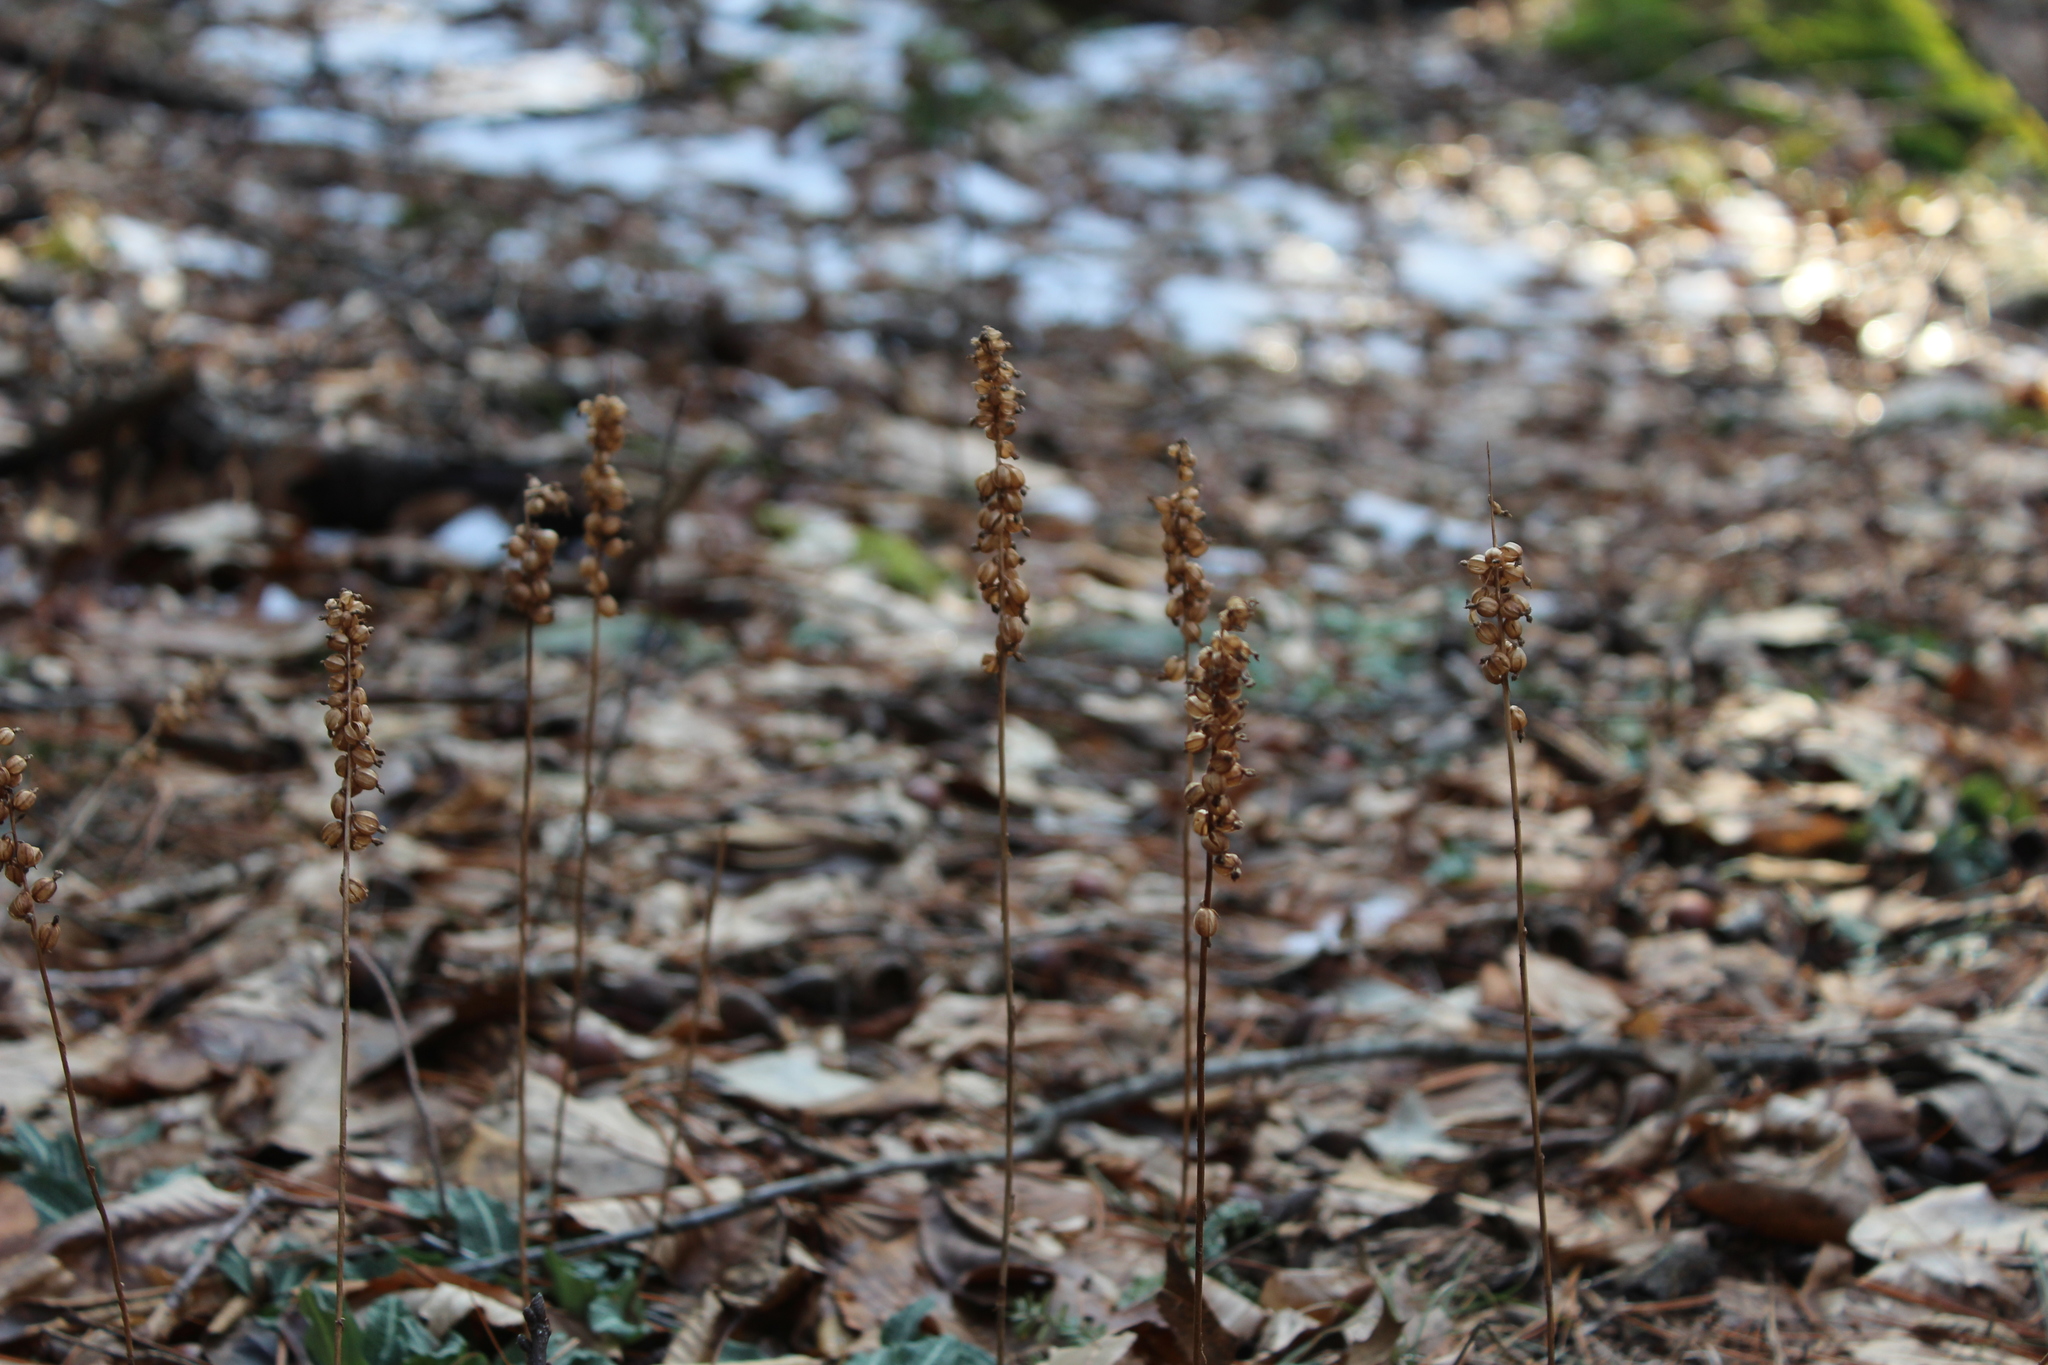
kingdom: Plantae
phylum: Tracheophyta
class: Liliopsida
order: Asparagales
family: Orchidaceae
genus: Goodyera
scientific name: Goodyera pubescens
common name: Downy rattlesnake-plantain
